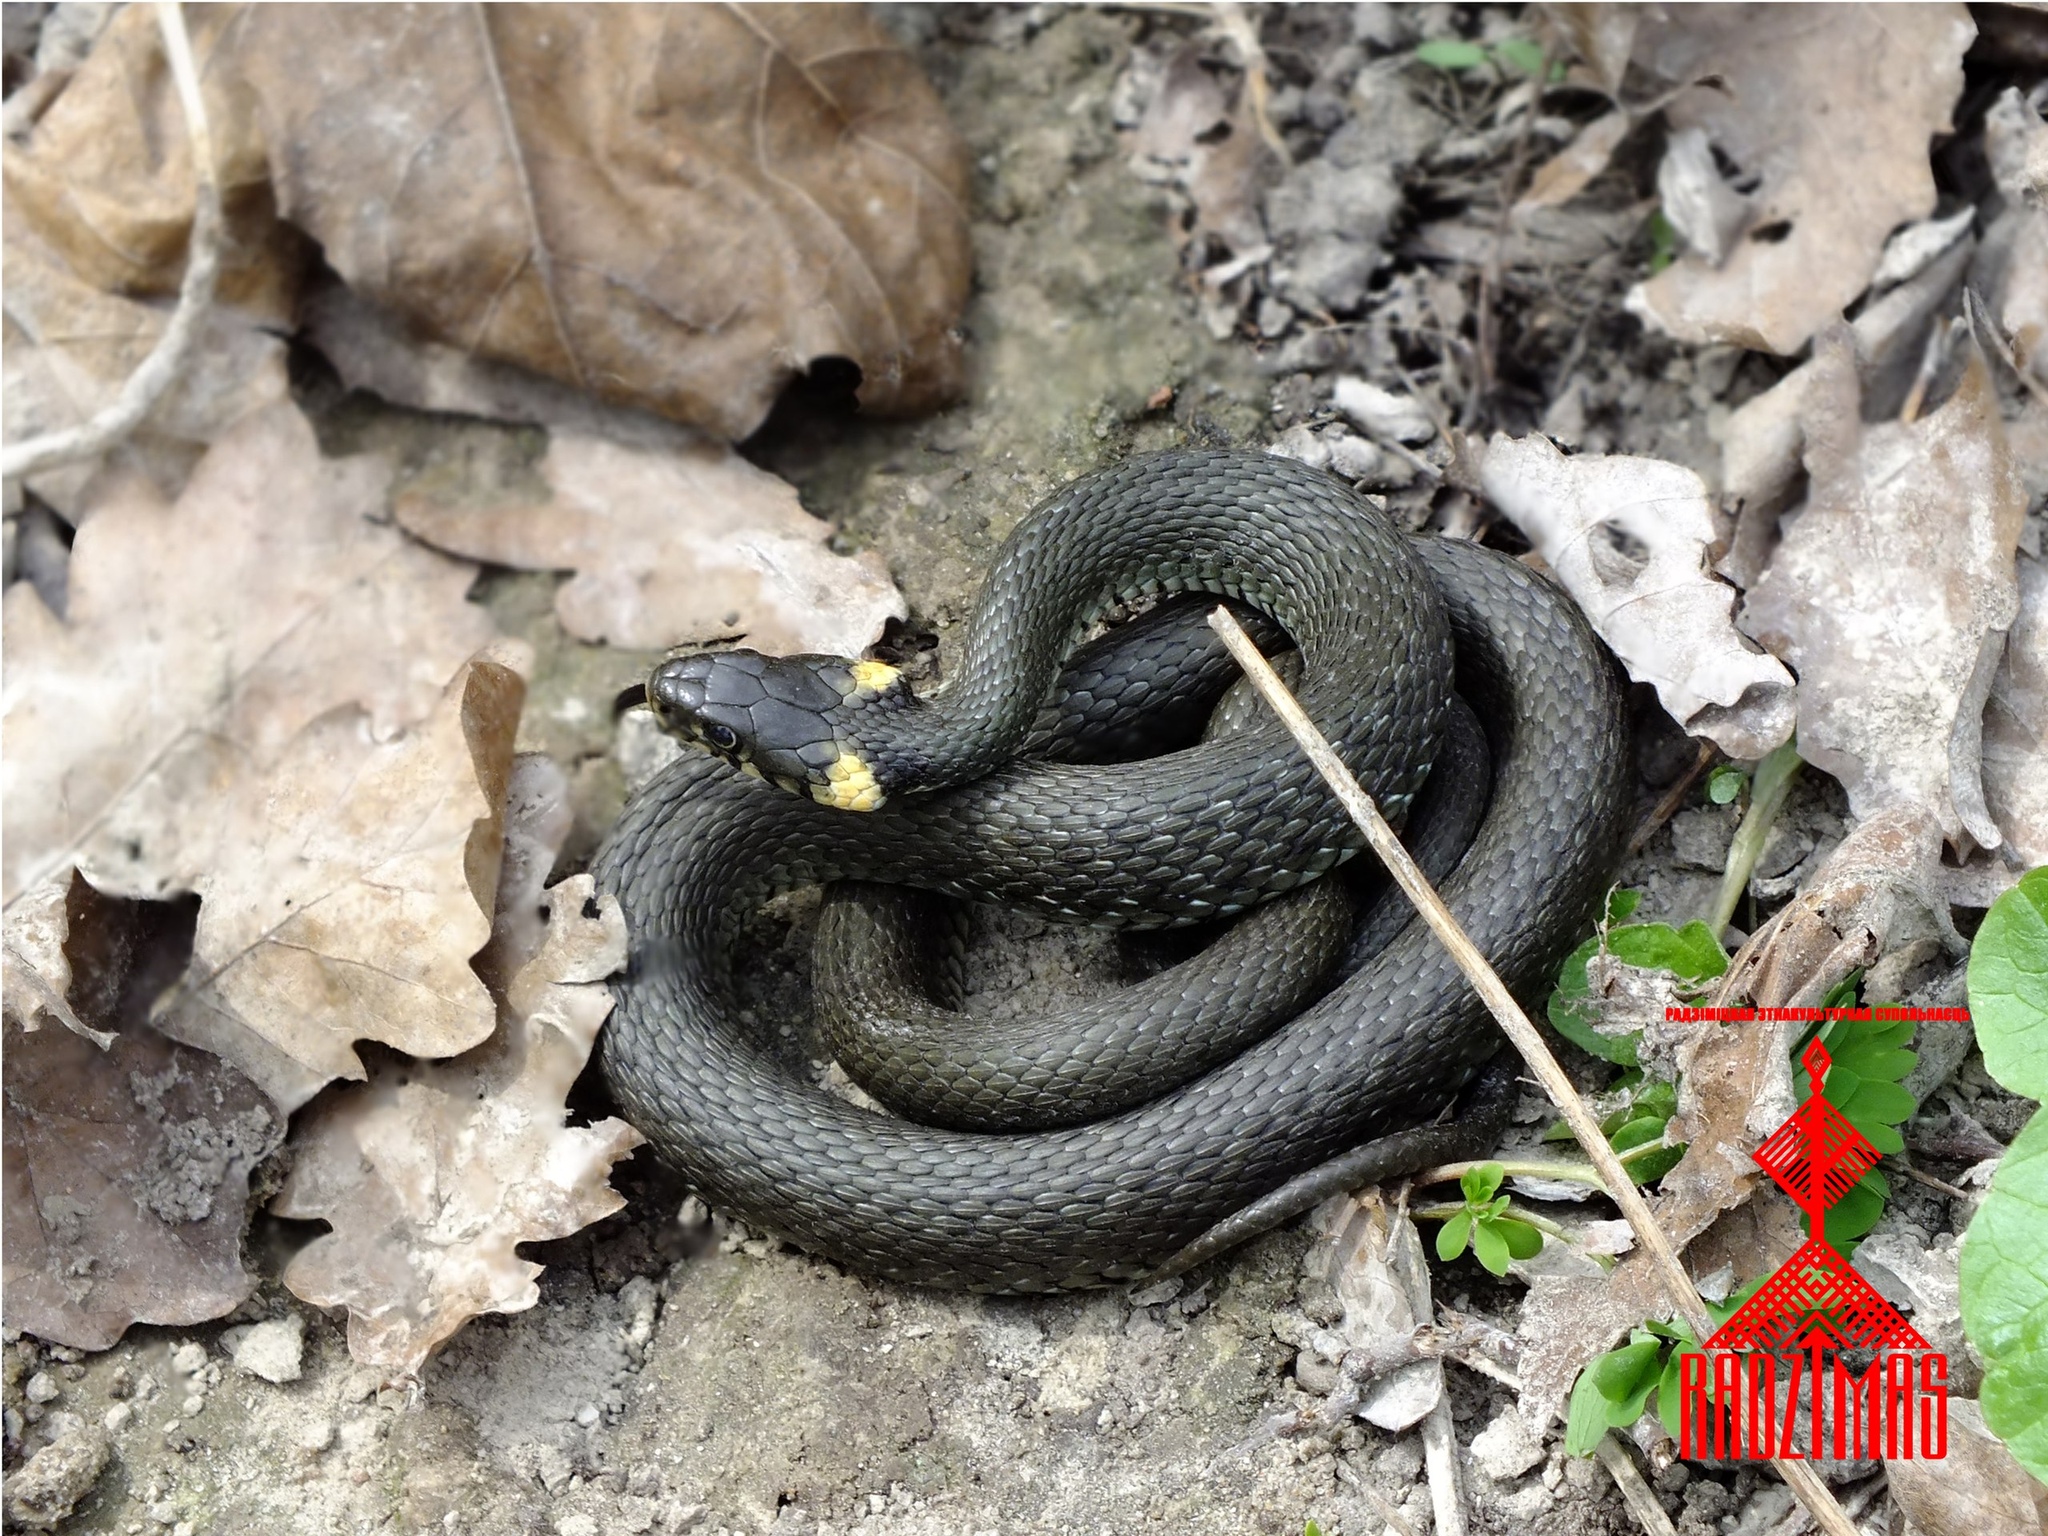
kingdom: Animalia
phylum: Chordata
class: Squamata
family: Colubridae
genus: Natrix
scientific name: Natrix natrix
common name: Grass snake
